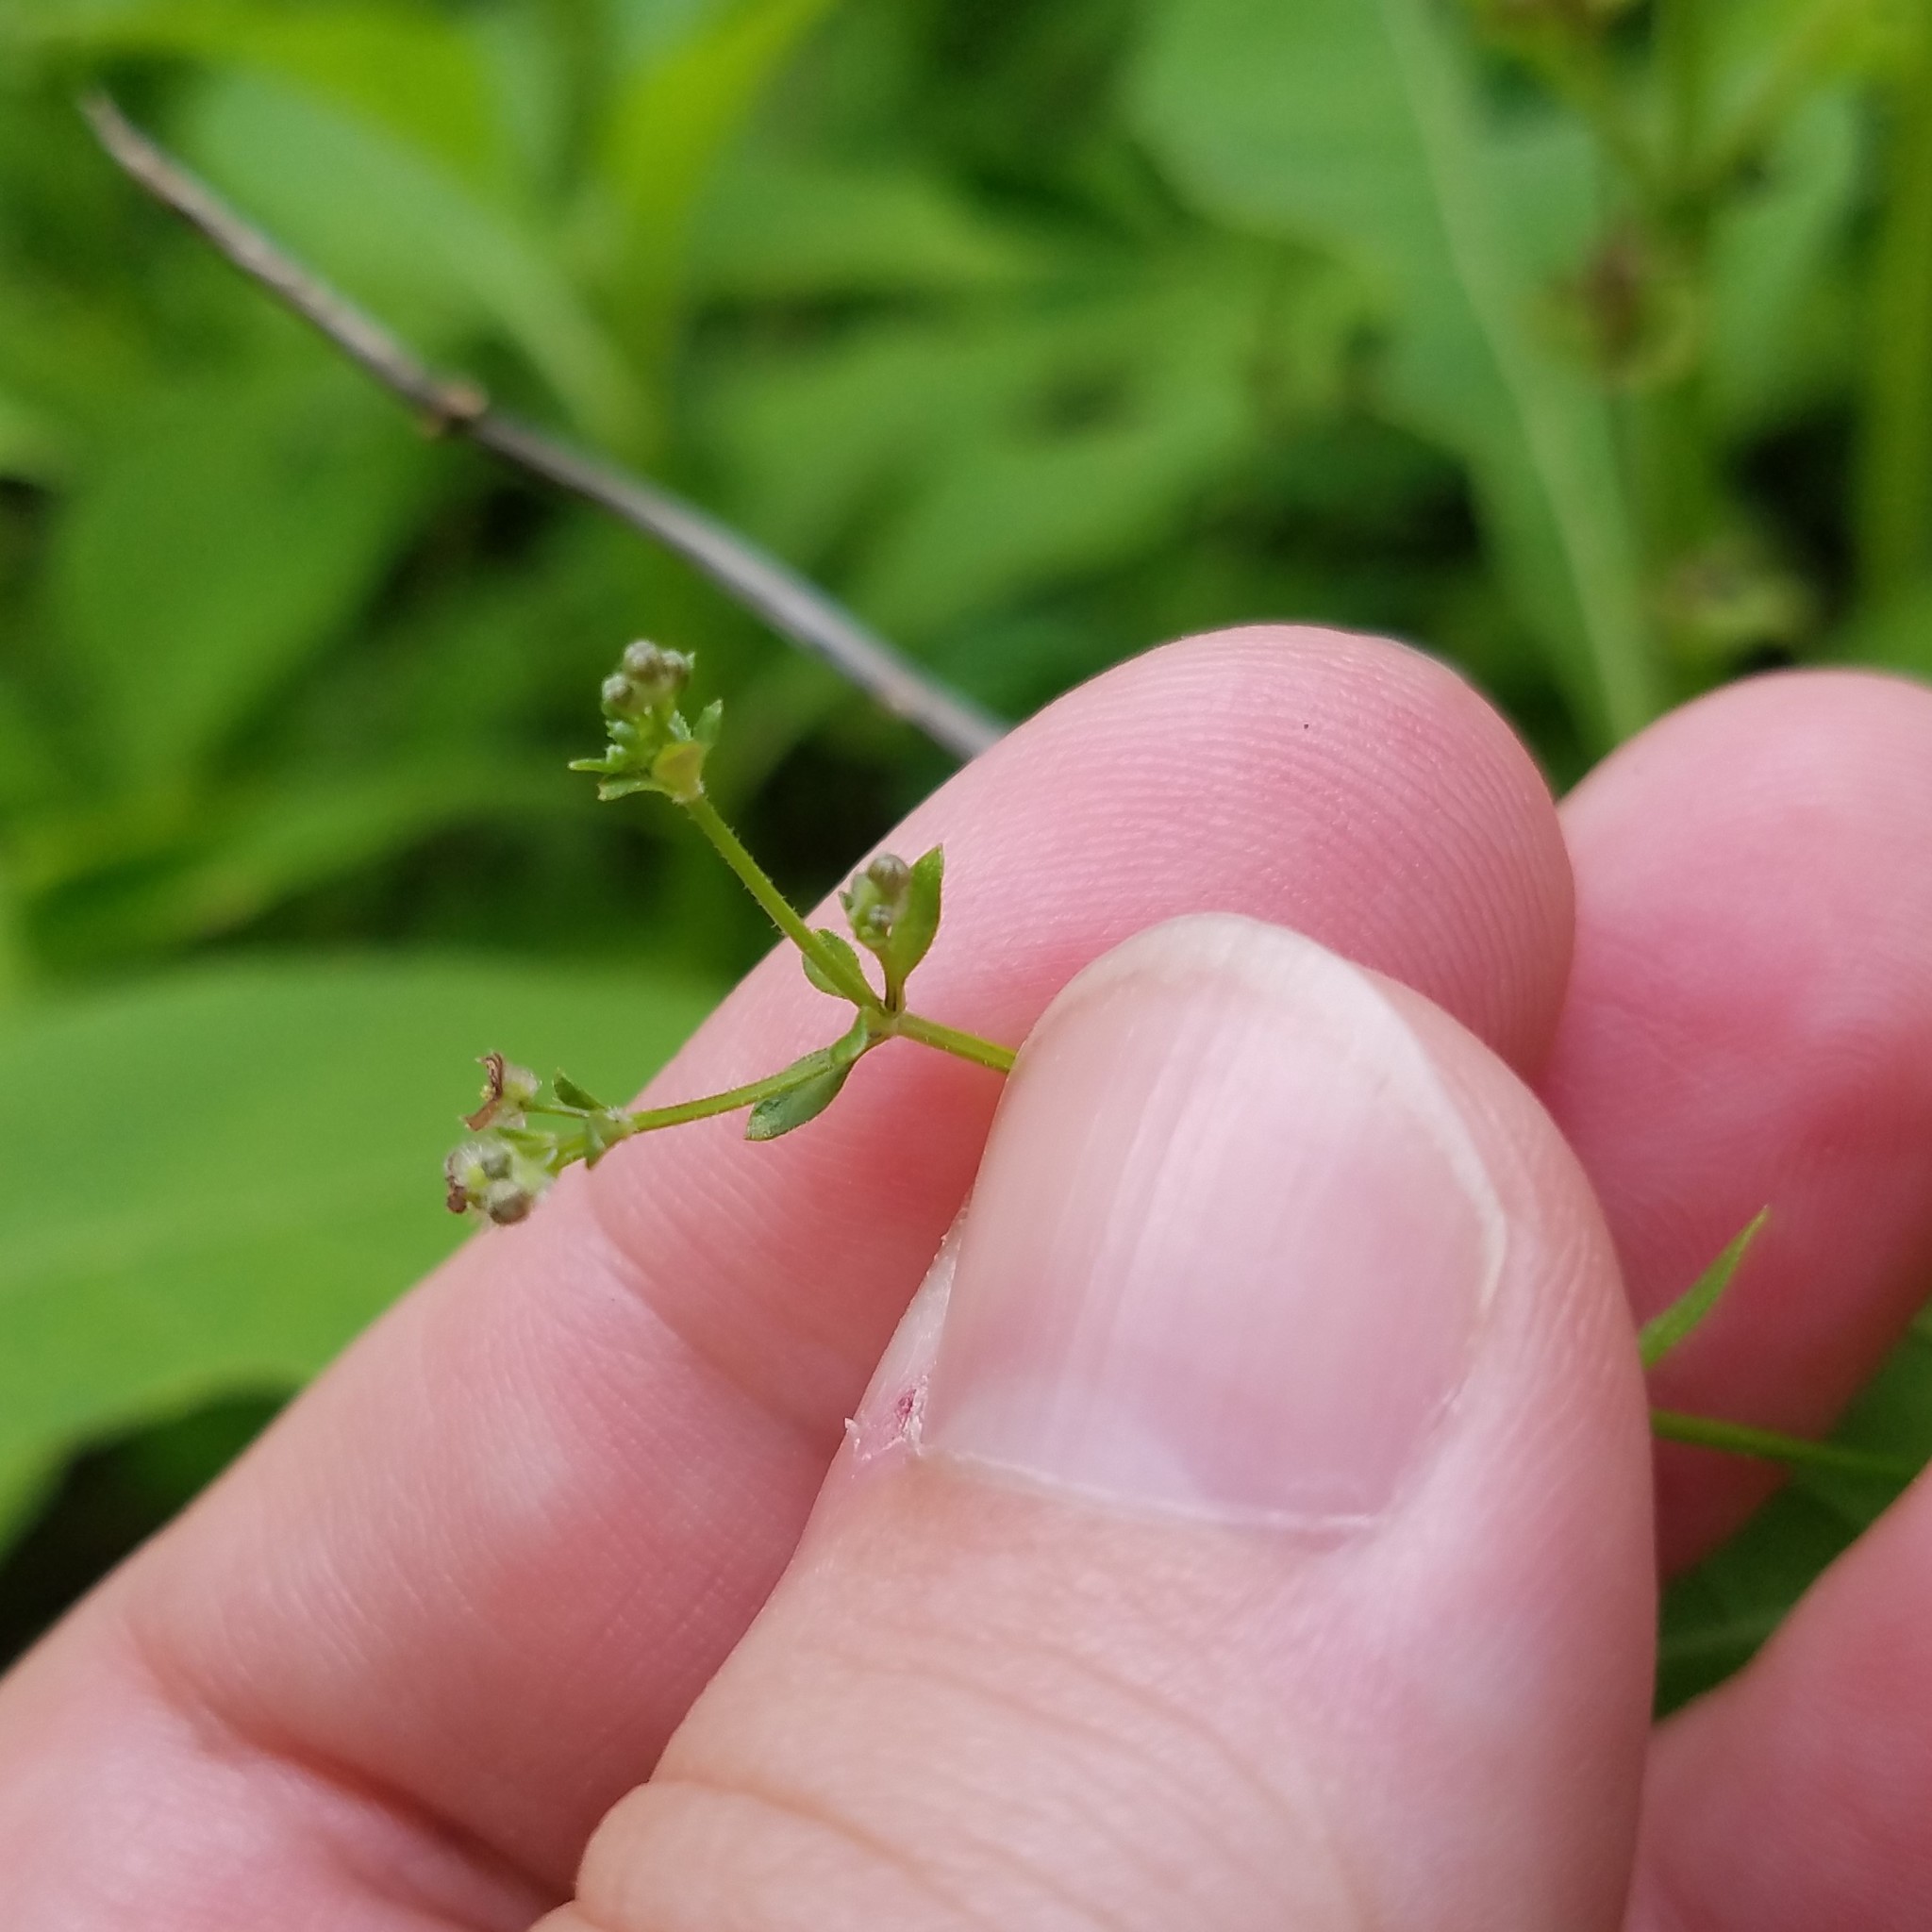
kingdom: Plantae
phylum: Tracheophyta
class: Magnoliopsida
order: Gentianales
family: Rubiaceae
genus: Galium
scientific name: Galium pilosum
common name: Hairy bedstraw
